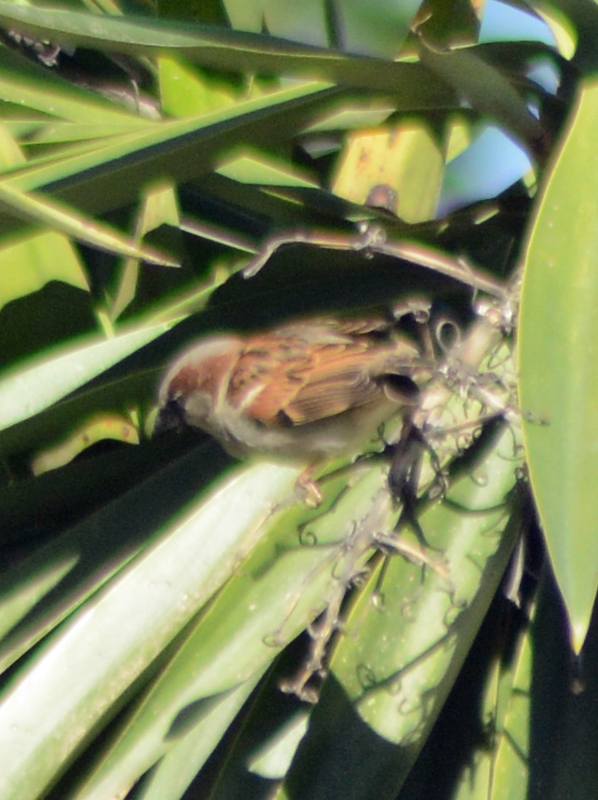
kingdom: Animalia
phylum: Chordata
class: Aves
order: Passeriformes
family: Passeridae
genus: Passer
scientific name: Passer domesticus
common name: House sparrow
